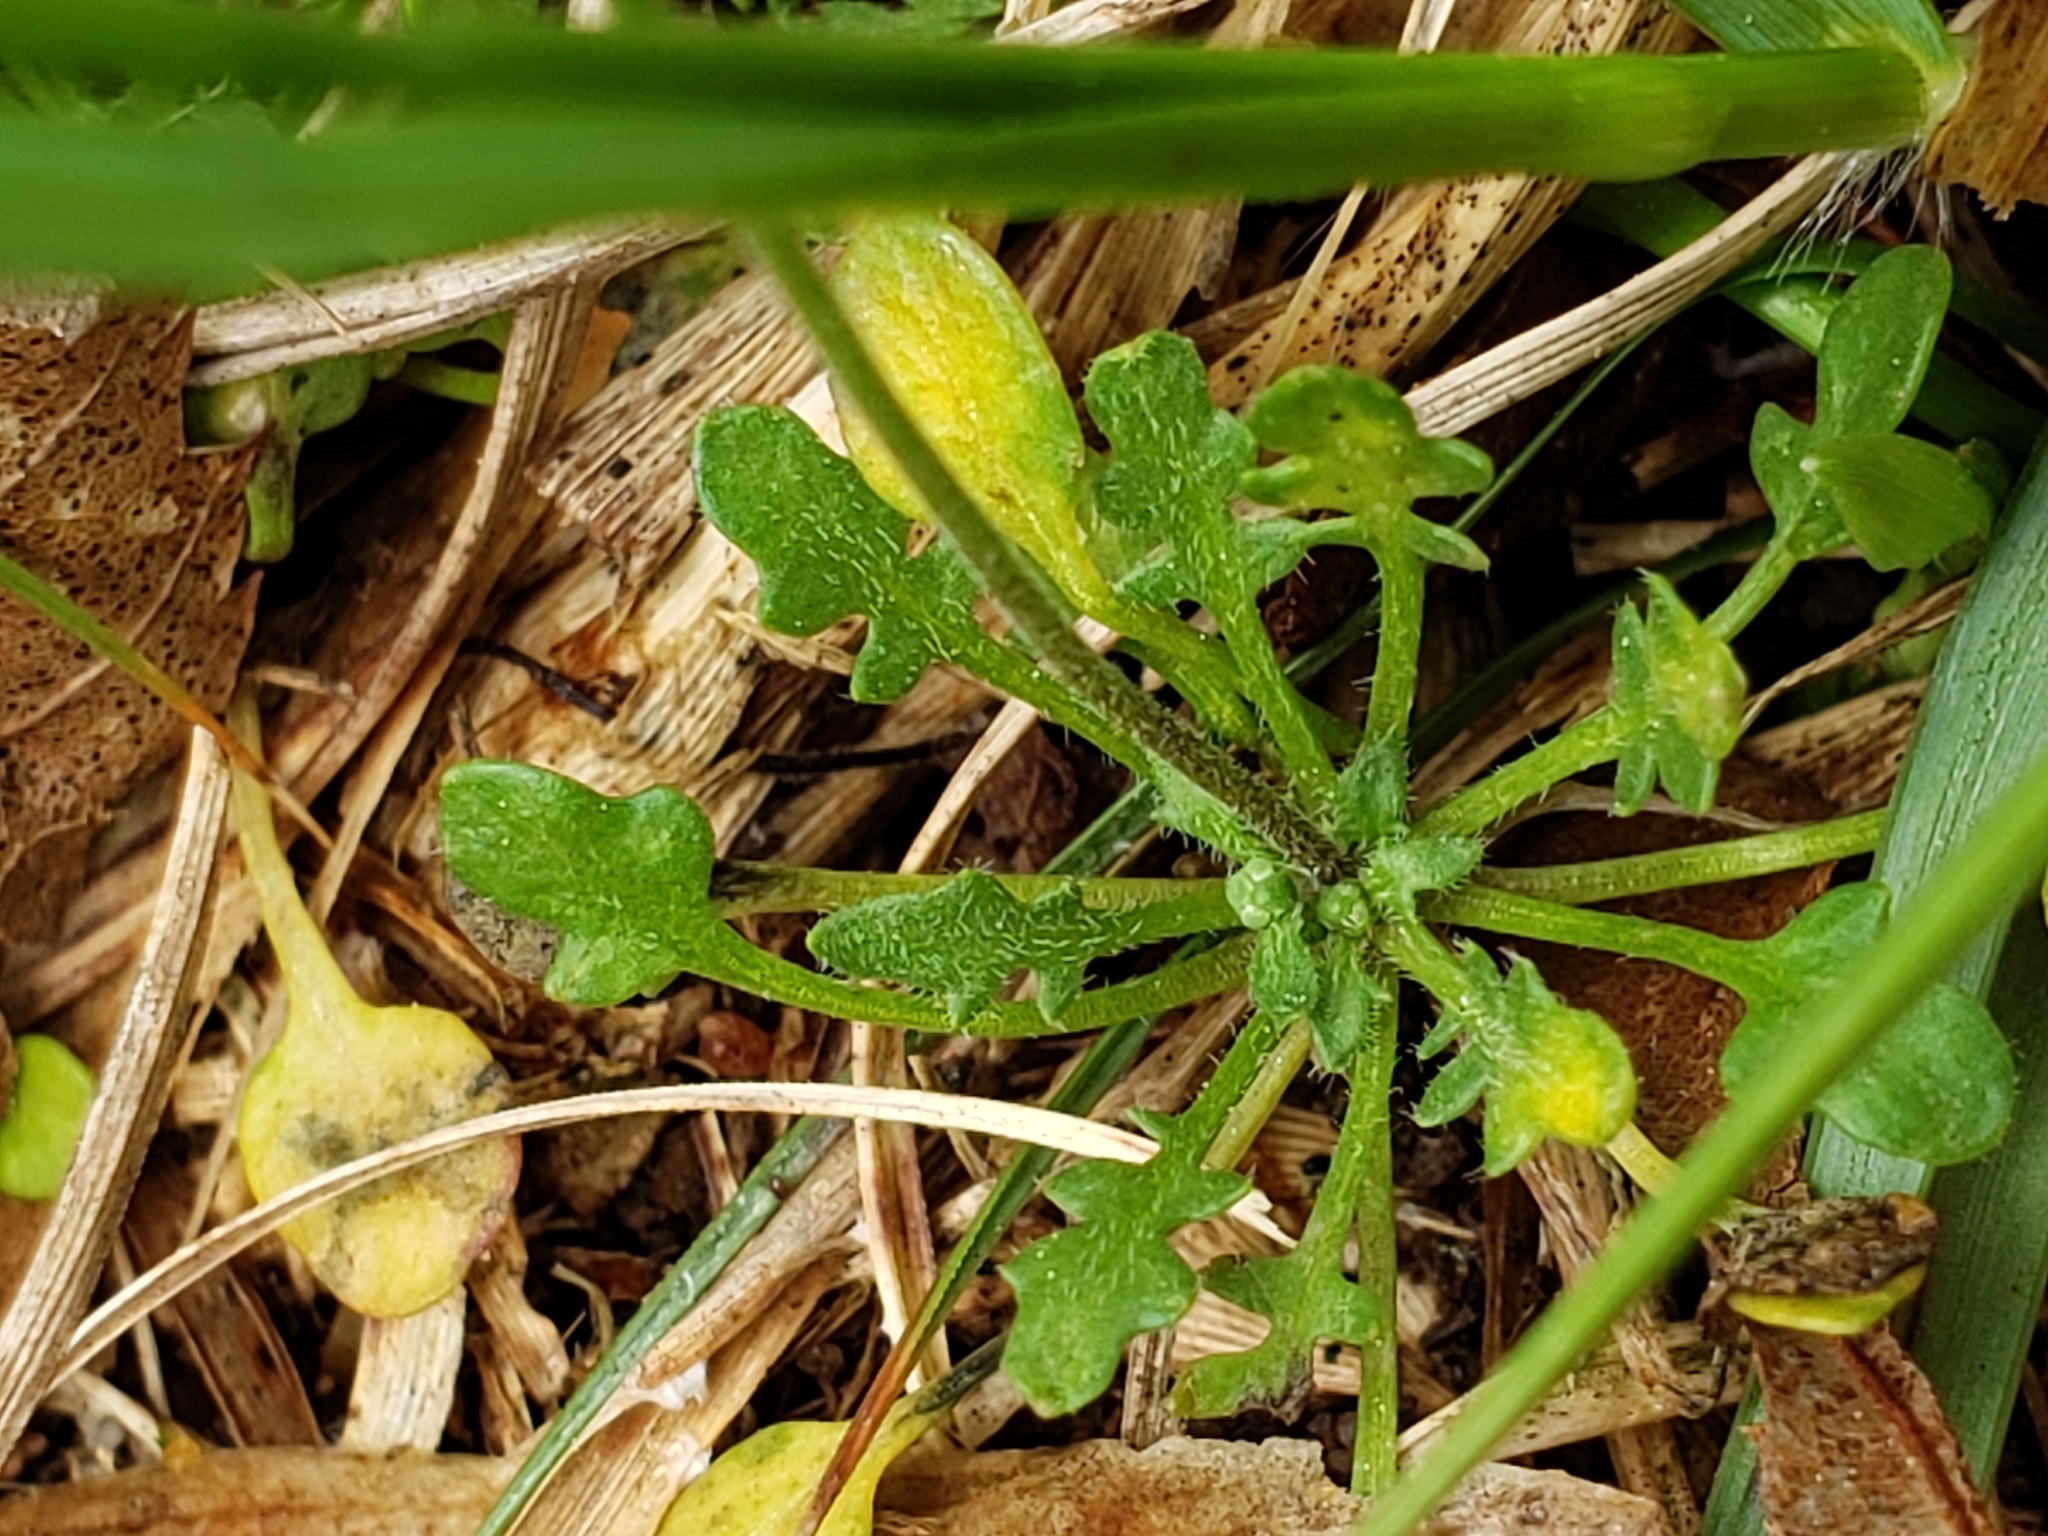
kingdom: Plantae
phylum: Tracheophyta
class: Magnoliopsida
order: Brassicales
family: Brassicaceae
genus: Teesdalia
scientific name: Teesdalia nudicaulis
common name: Shepherd's cress
